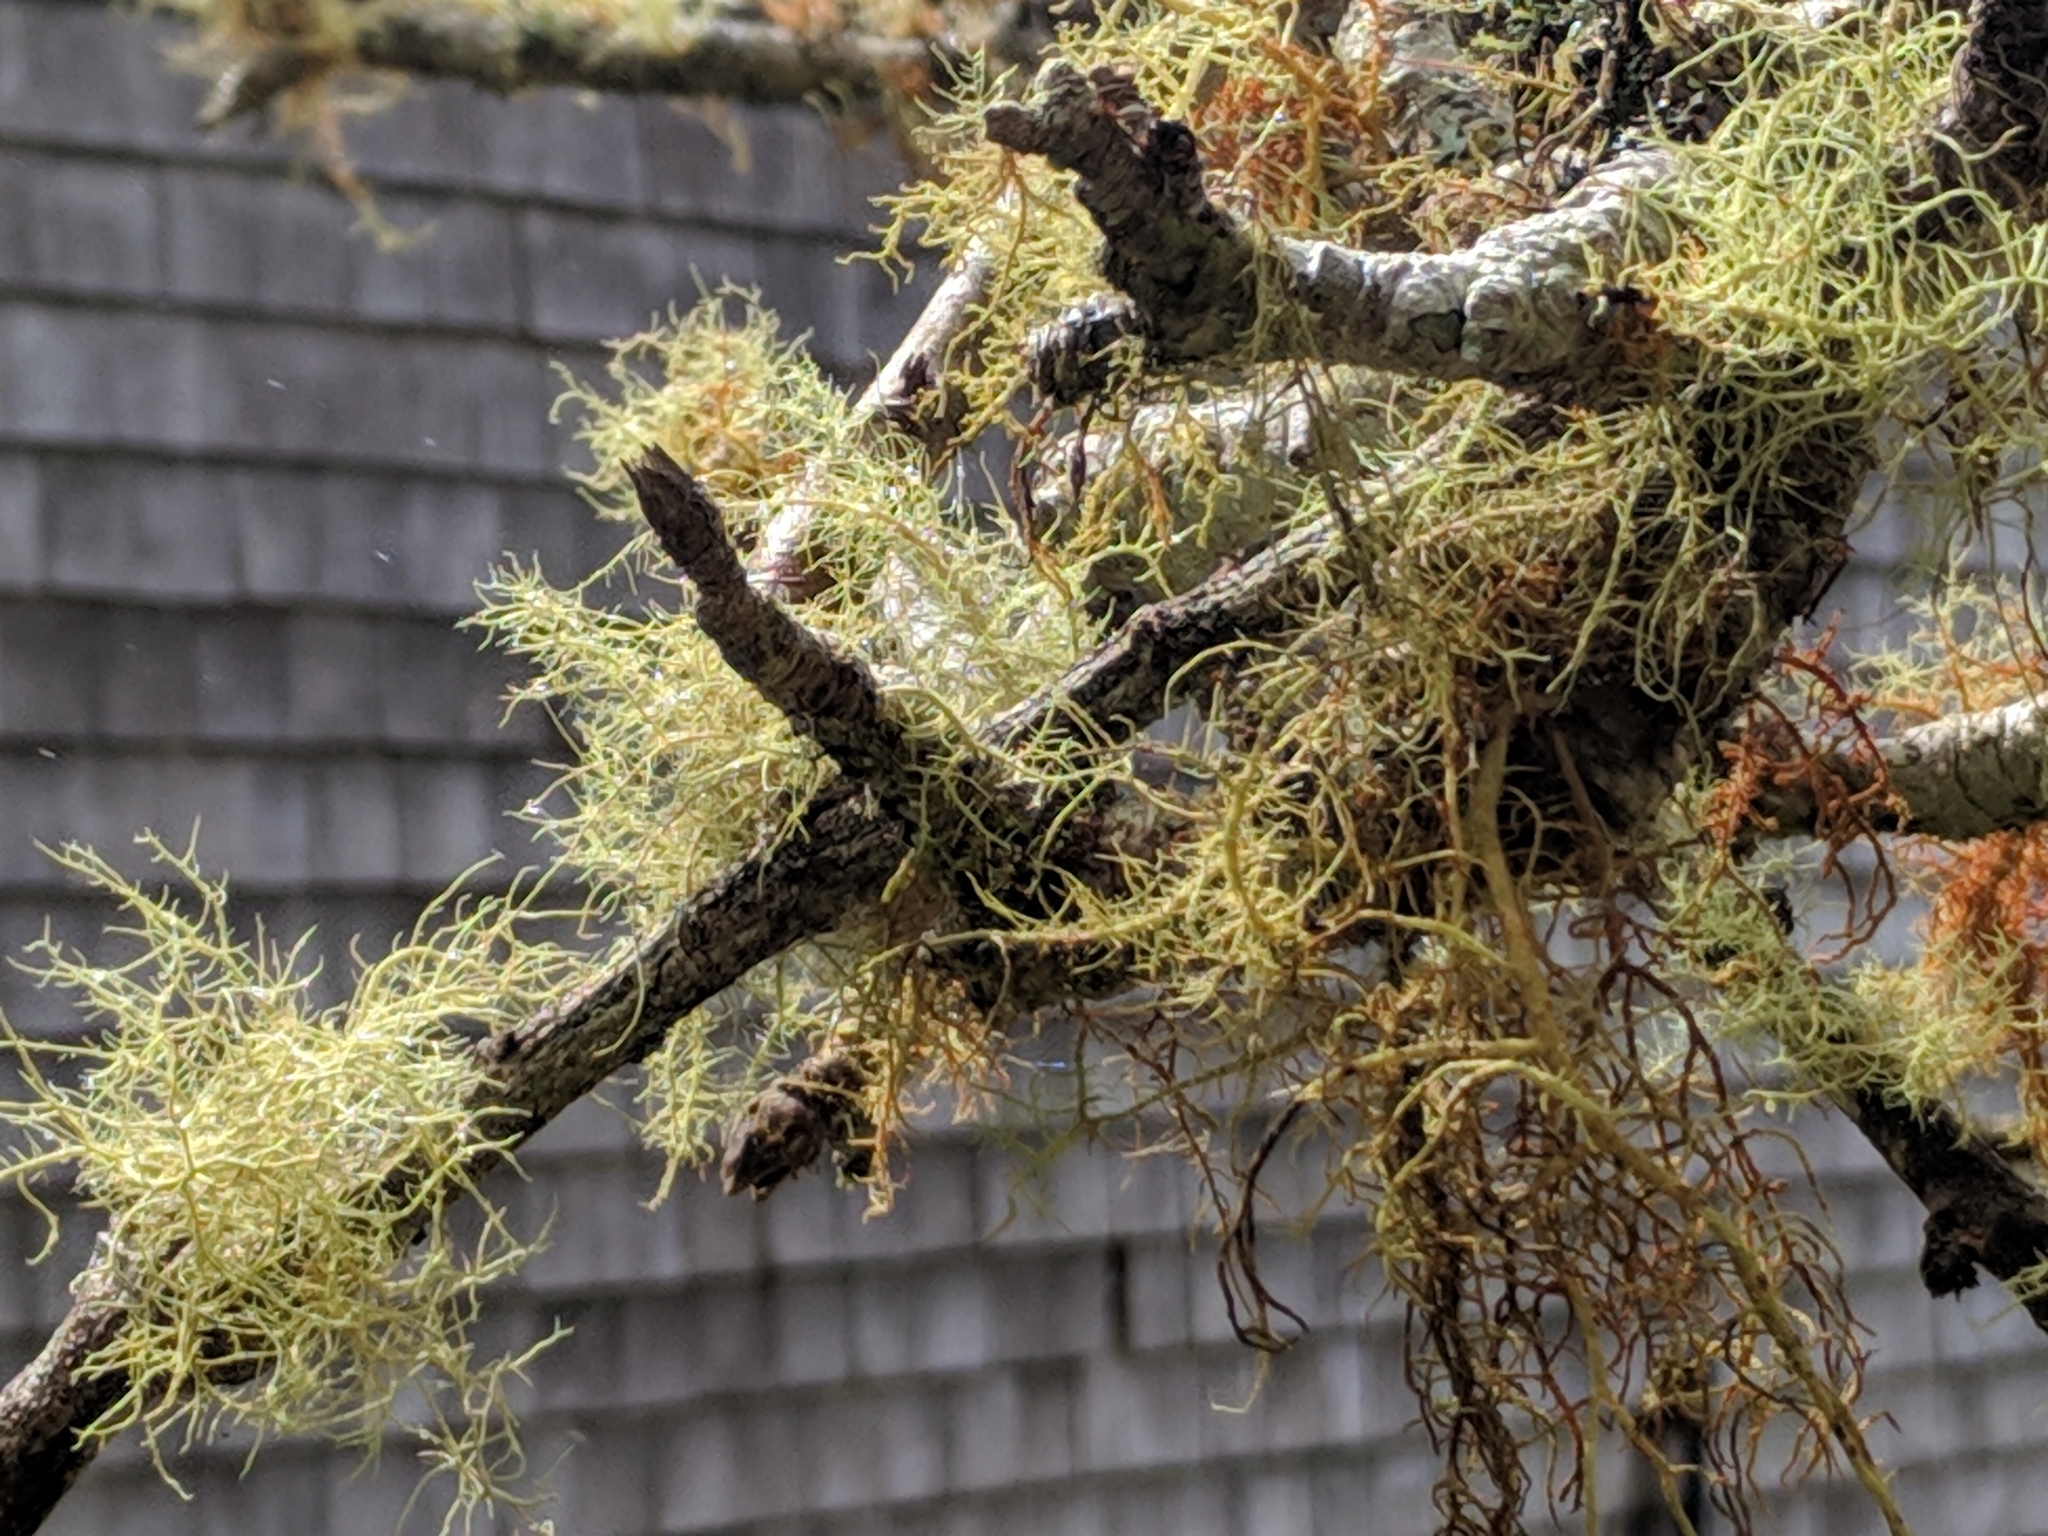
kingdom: Fungi
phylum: Ascomycota
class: Lecanoromycetes
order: Lecanorales
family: Parmeliaceae
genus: Usnea
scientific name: Usnea barbata
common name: Old man's beard lichen
